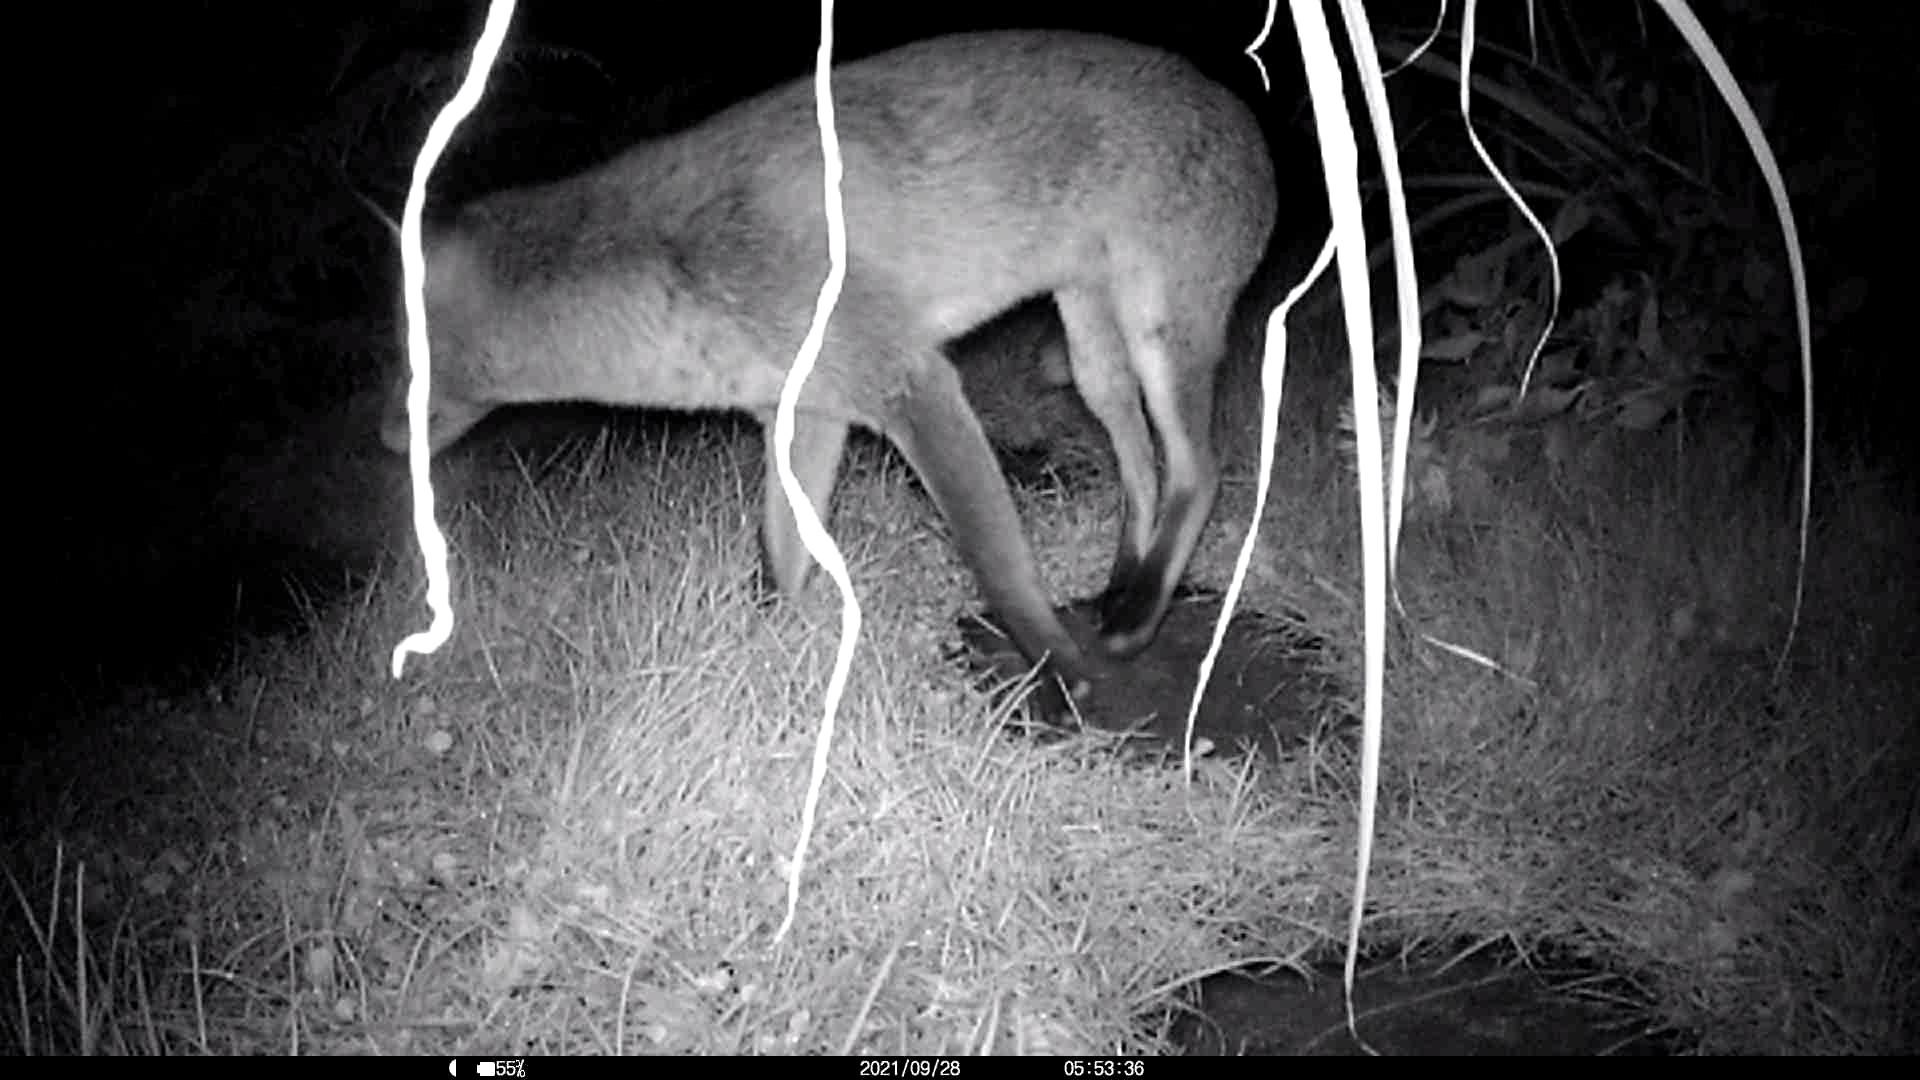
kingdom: Animalia
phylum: Chordata
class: Mammalia
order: Carnivora
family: Canidae
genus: Vulpes
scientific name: Vulpes vulpes
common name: Red fox
